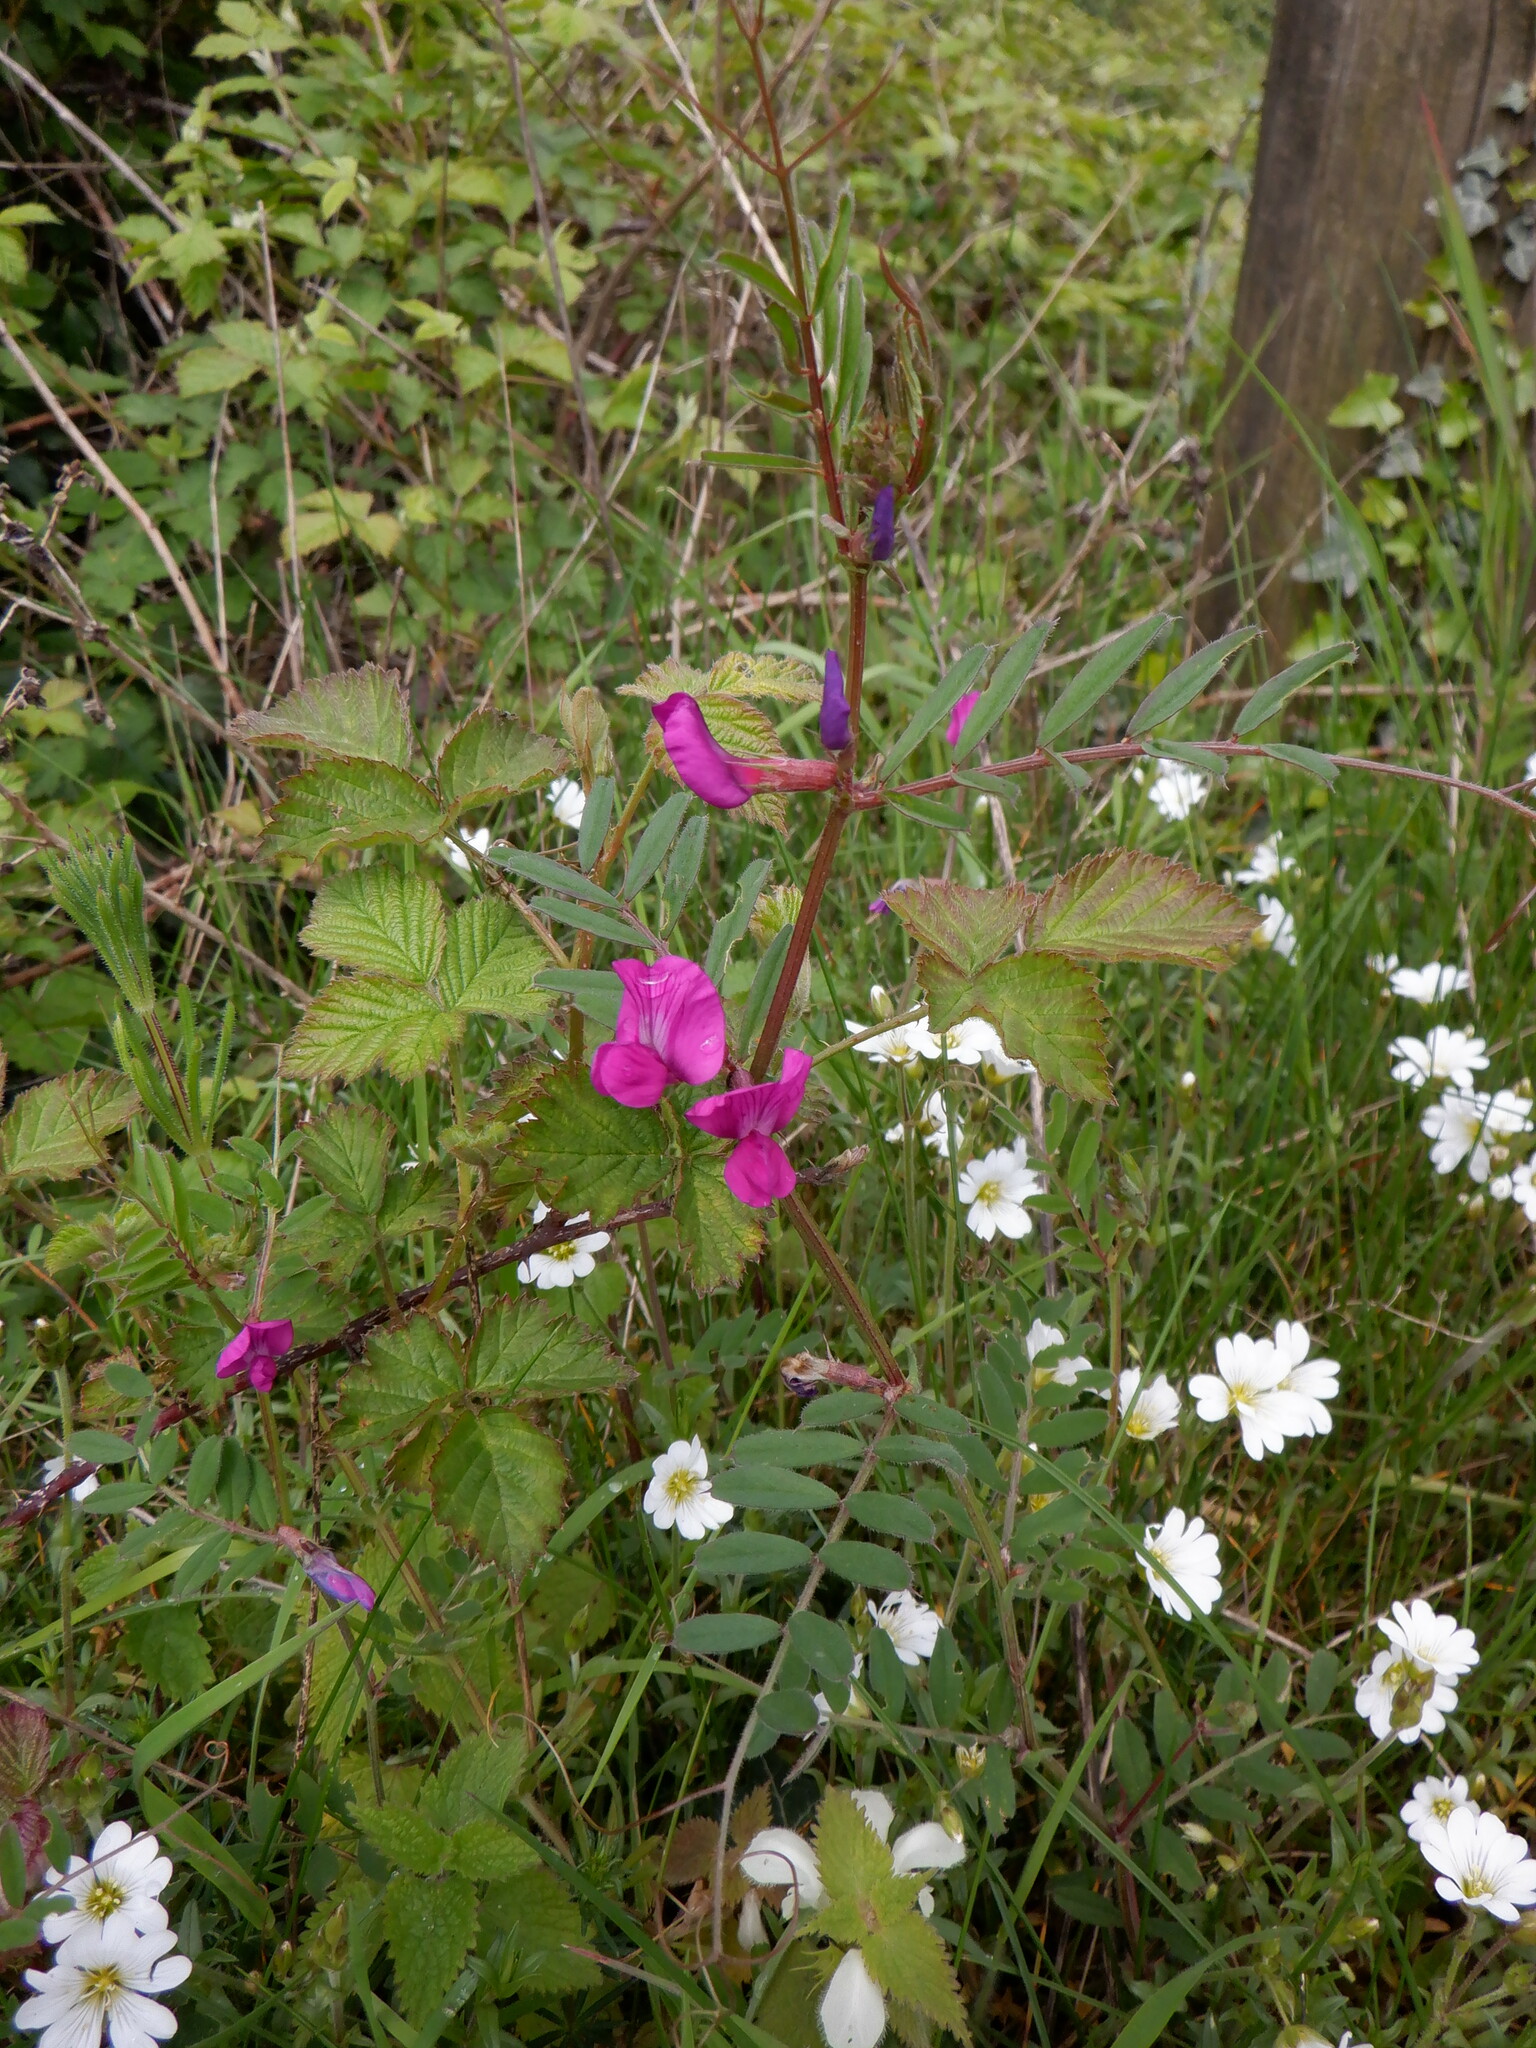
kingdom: Plantae
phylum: Tracheophyta
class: Magnoliopsida
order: Fabales
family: Fabaceae
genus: Vicia
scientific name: Vicia sativa
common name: Garden vetch
